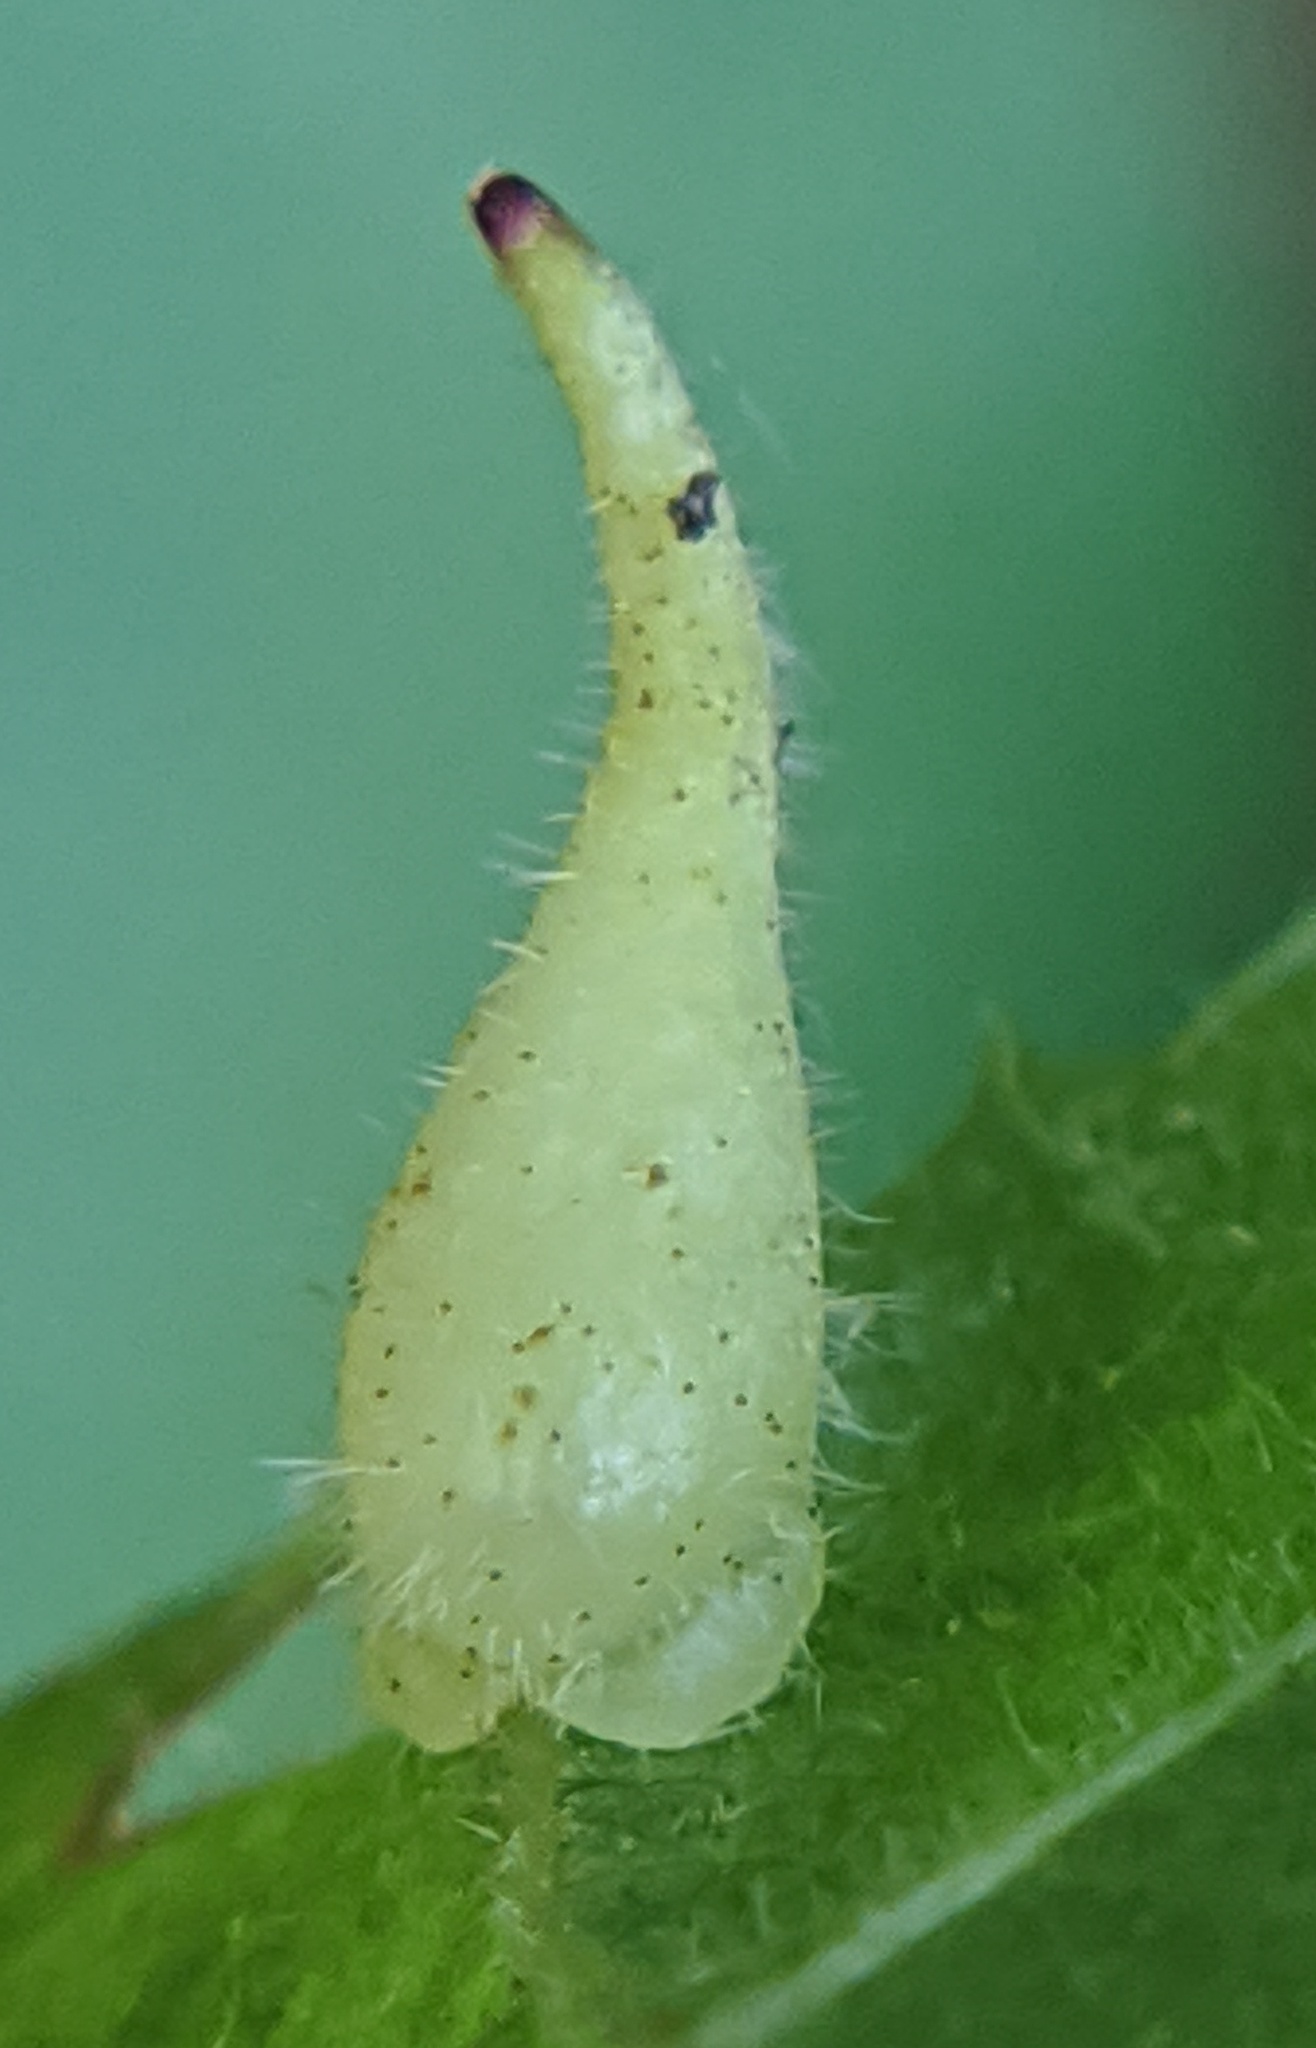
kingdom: Animalia
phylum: Arthropoda
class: Insecta
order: Diptera
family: Cecidomyiidae
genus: Caryomyia
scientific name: Caryomyia spinulosa
